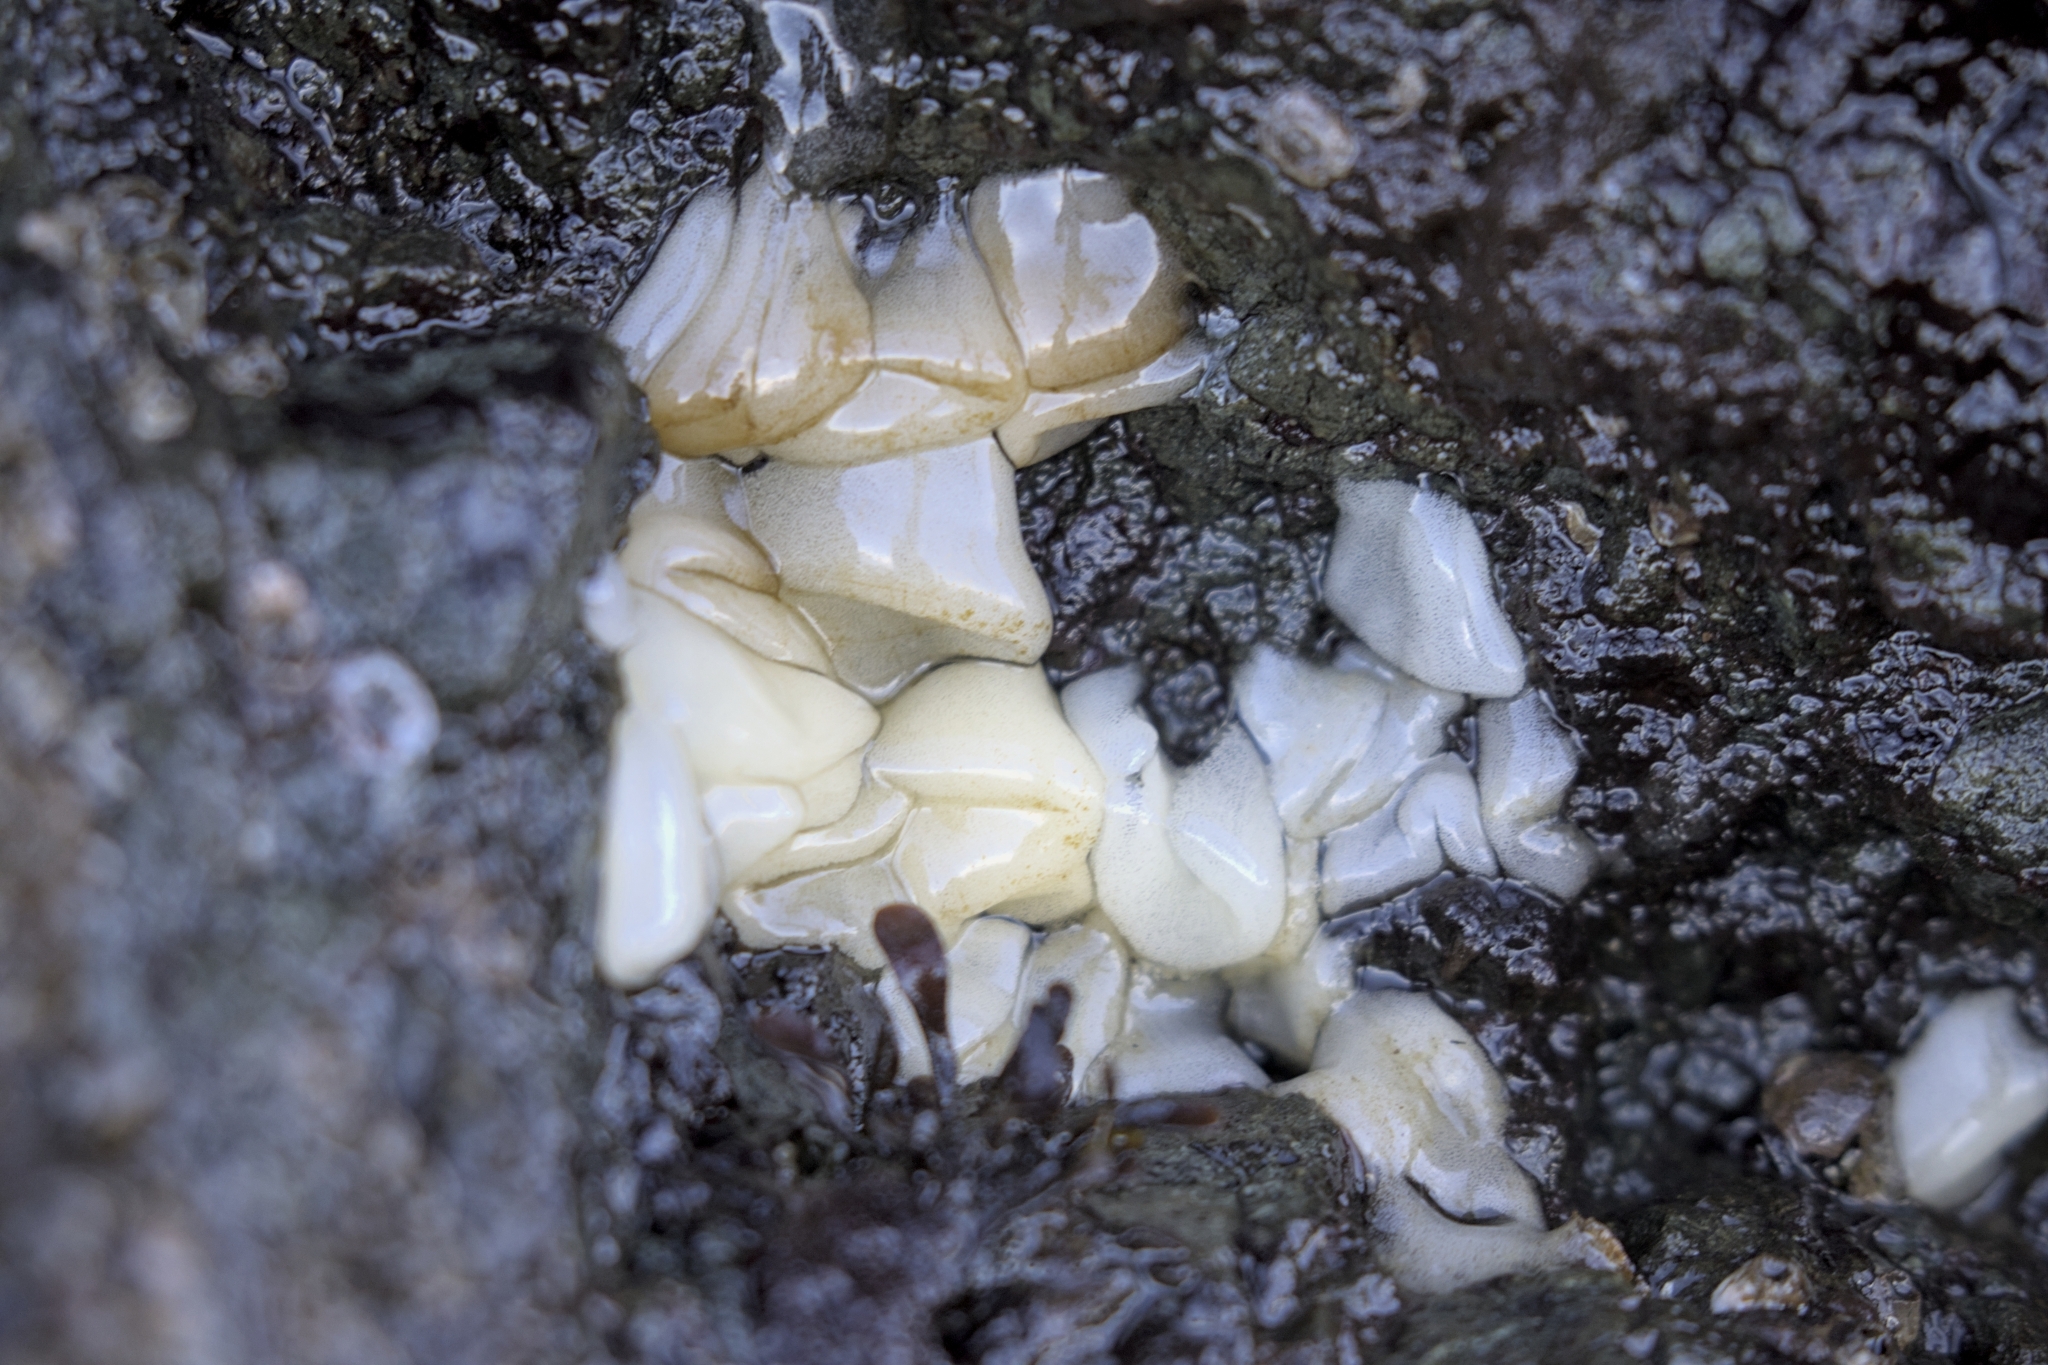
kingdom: Animalia
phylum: Mollusca
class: Gastropoda
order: Nudibranchia
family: Onchidorididae
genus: Onchidoris
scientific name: Onchidoris bilamellata
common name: Barnacle-eating onchidoris
